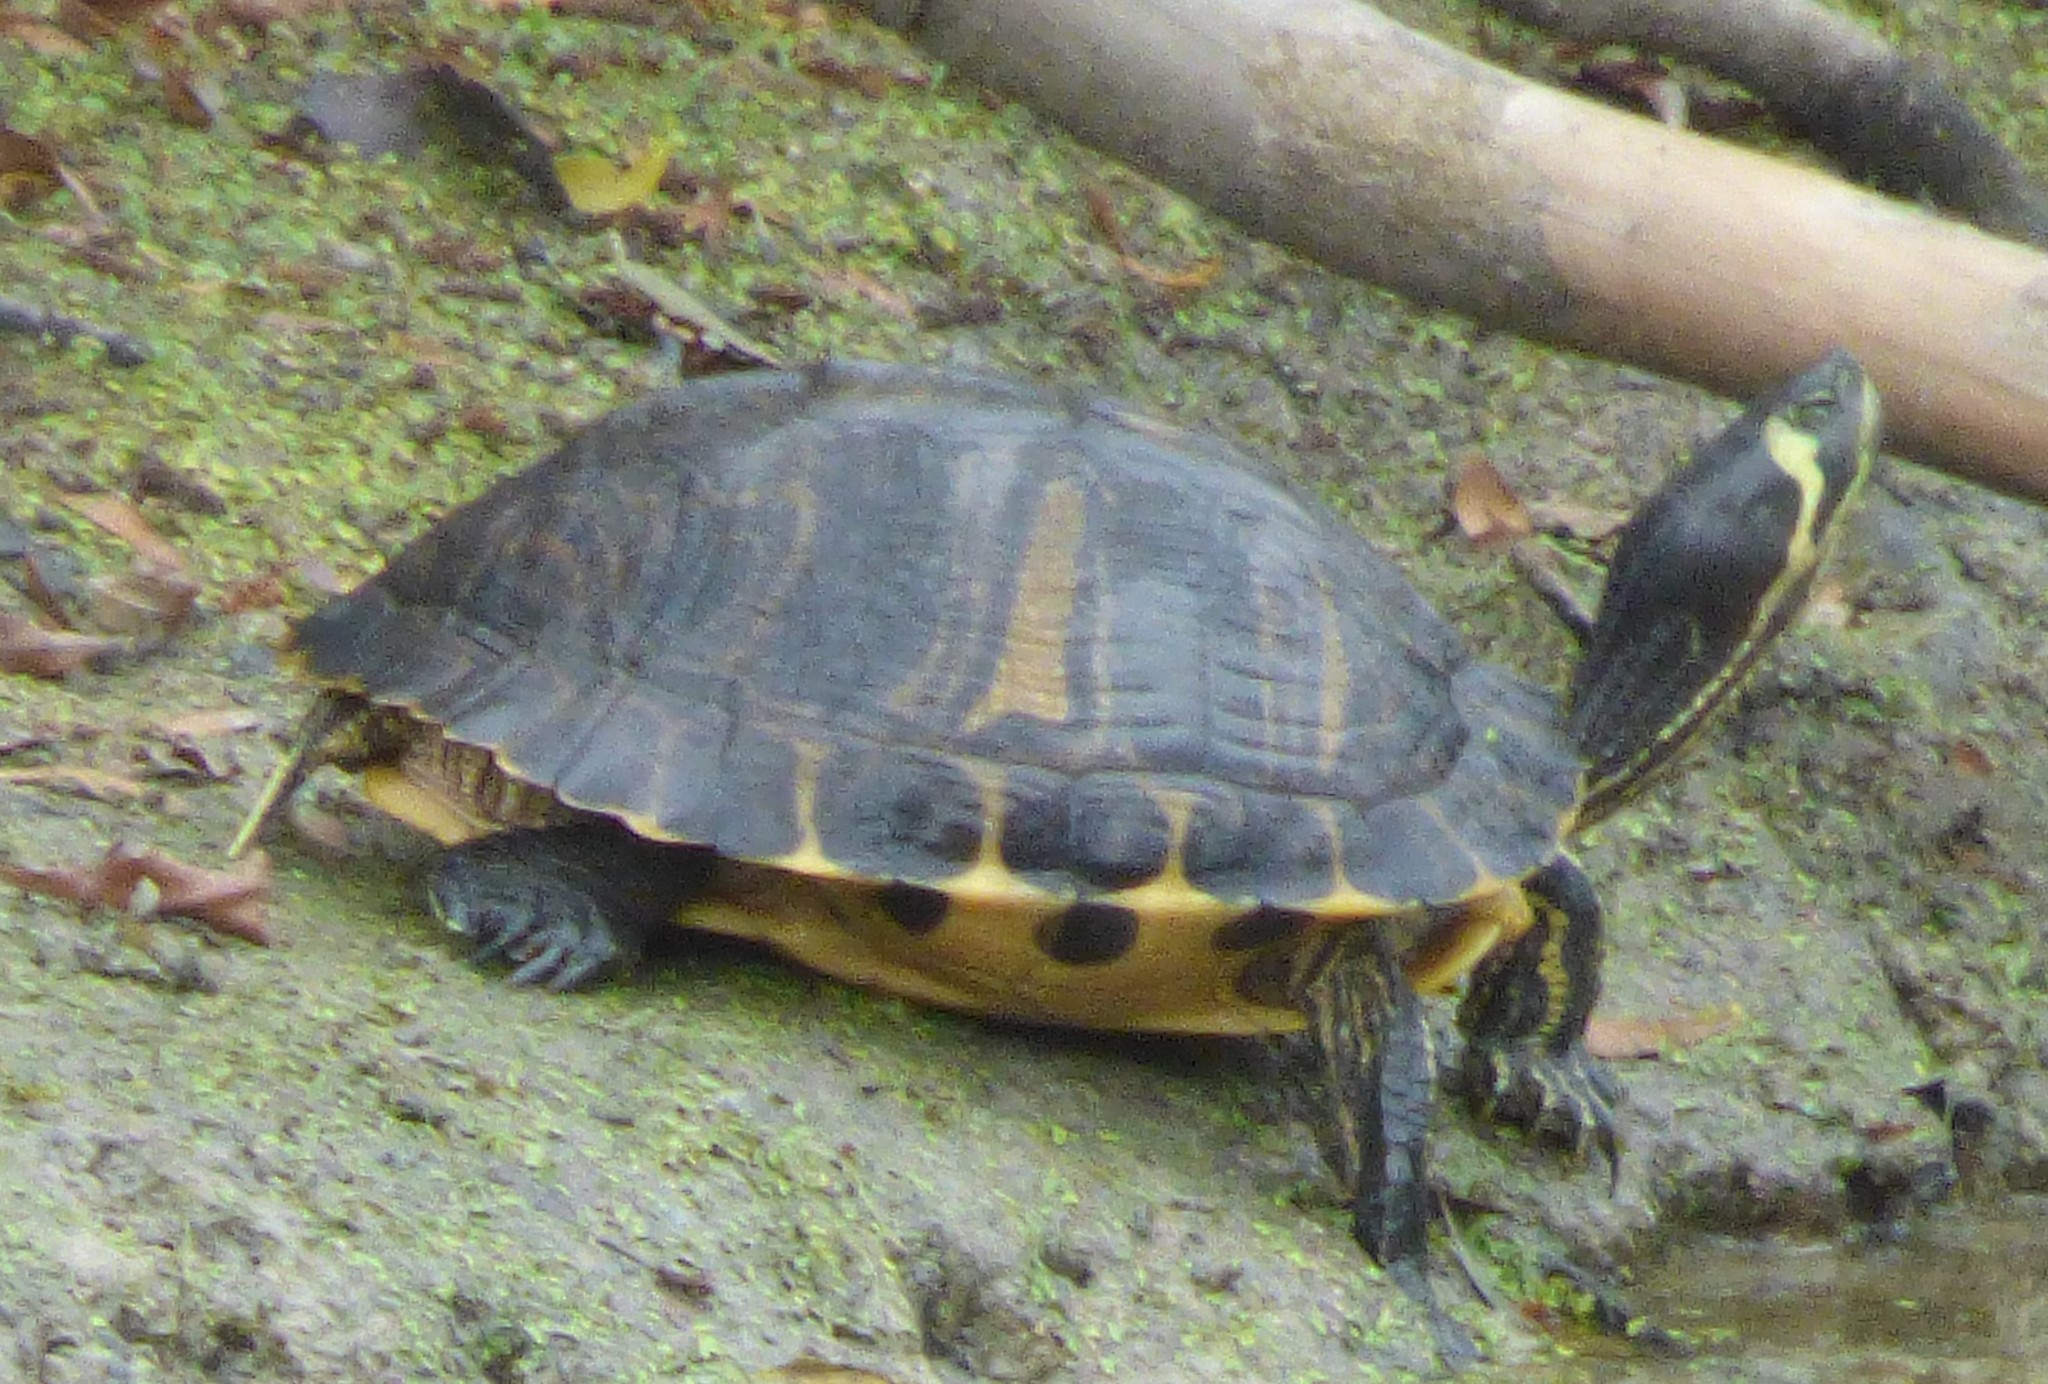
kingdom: Animalia
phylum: Chordata
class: Testudines
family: Emydidae
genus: Trachemys
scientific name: Trachemys scripta
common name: Slider
